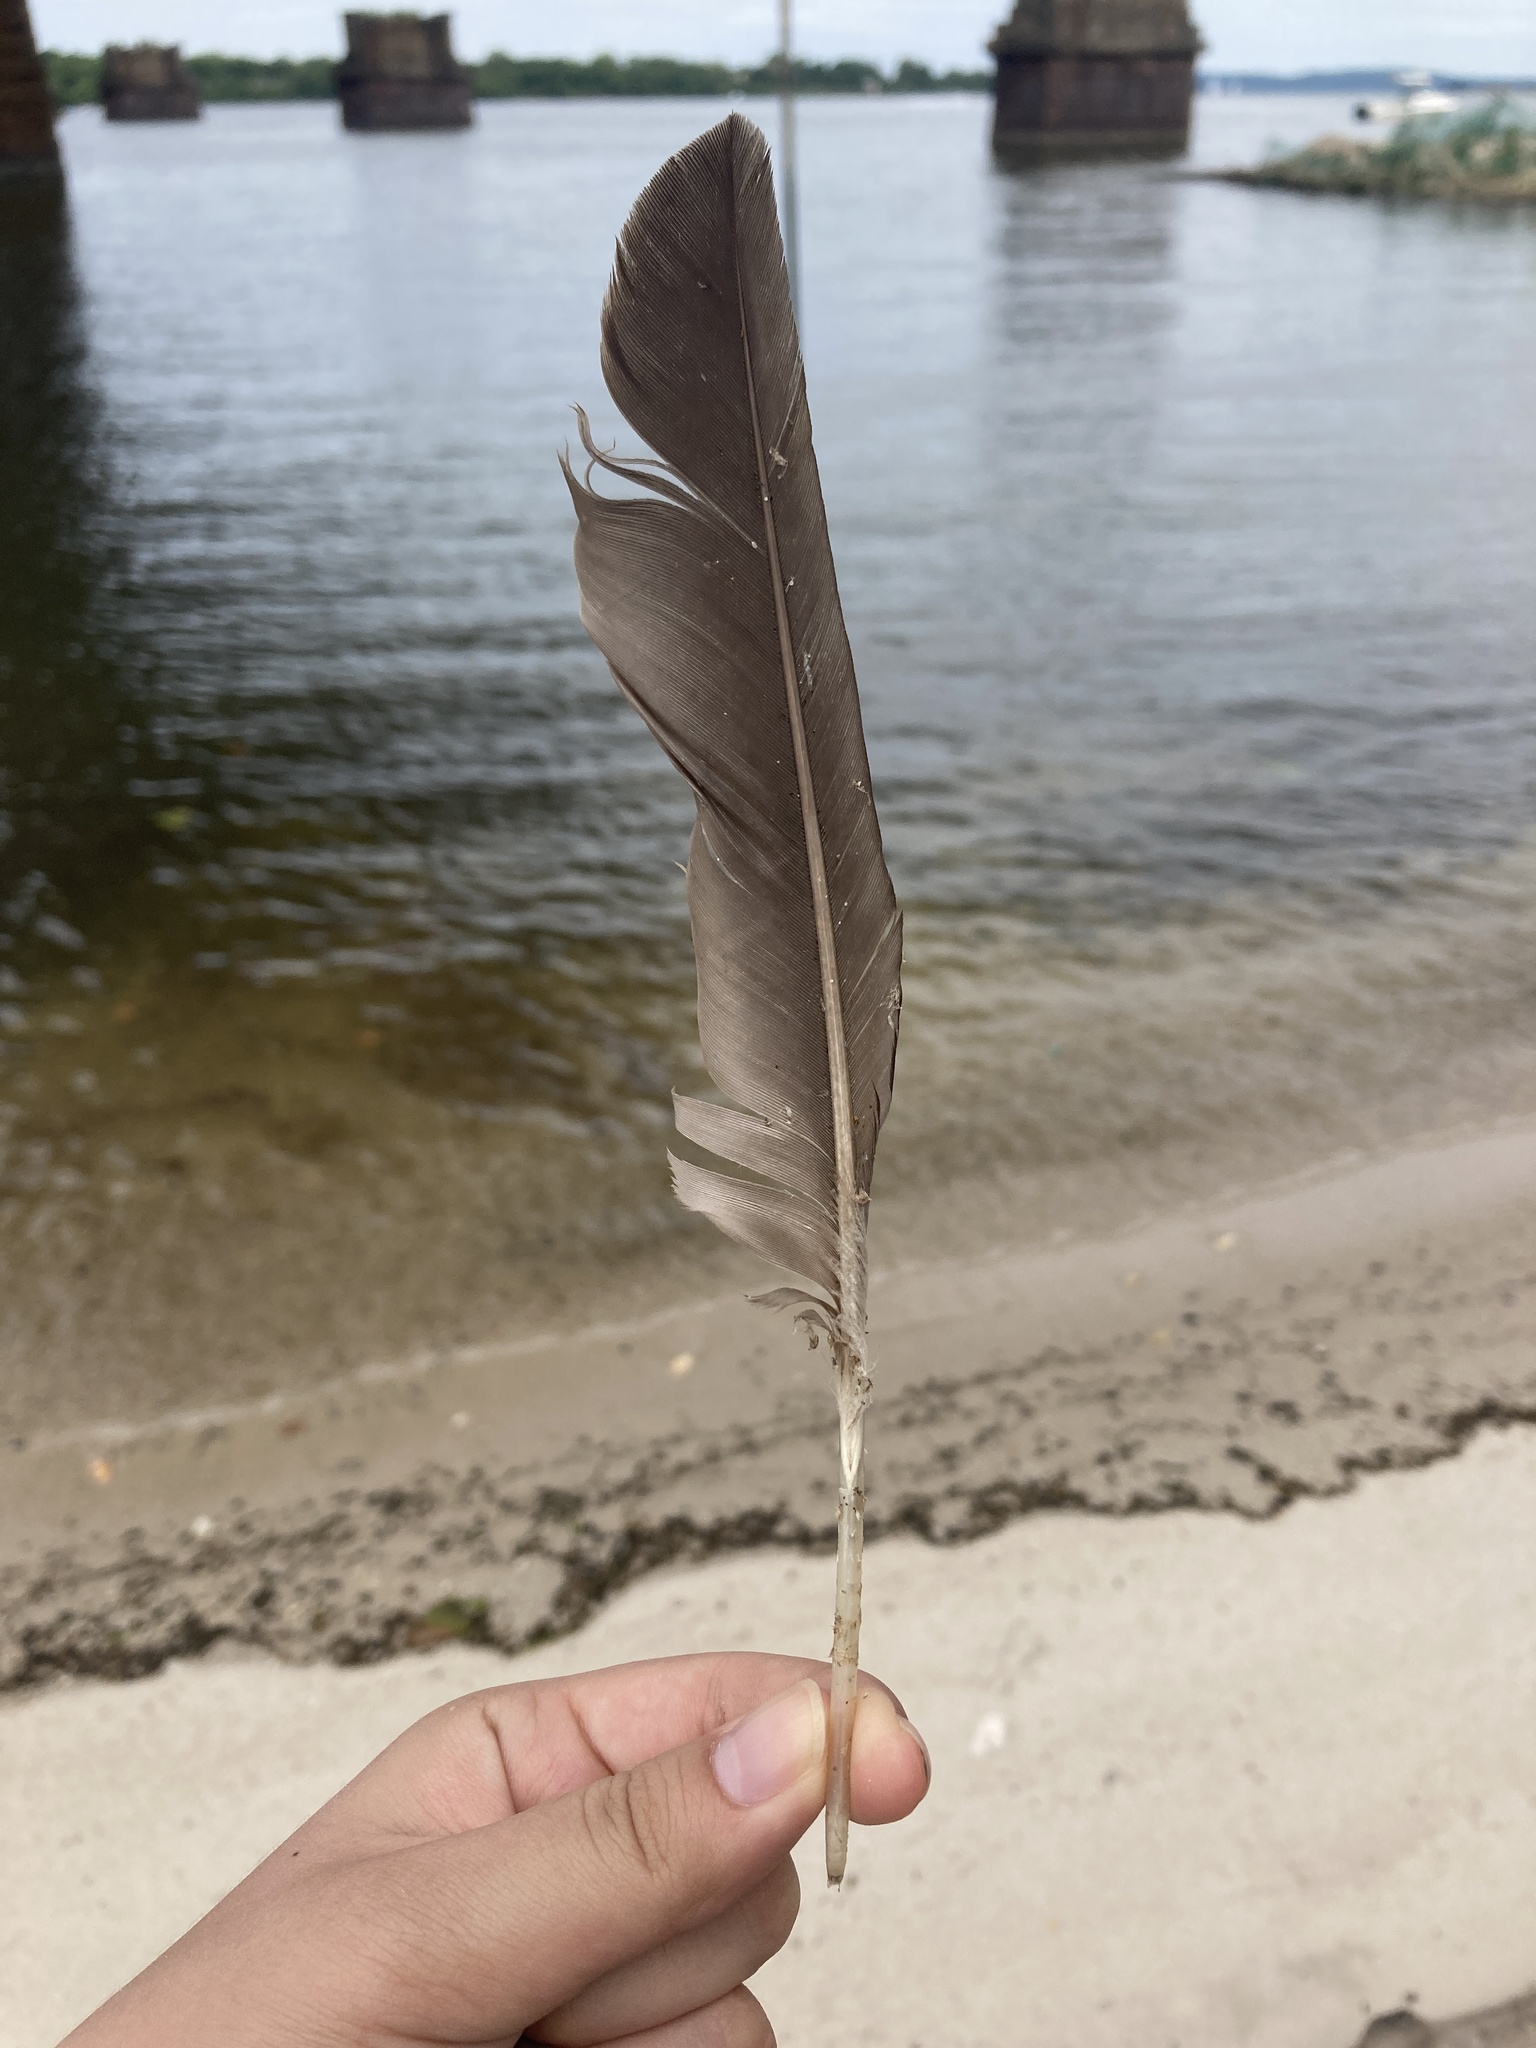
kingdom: Animalia
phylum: Chordata
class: Aves
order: Suliformes
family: Phalacrocoracidae
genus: Phalacrocorax
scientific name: Phalacrocorax auritus
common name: Double-crested cormorant
